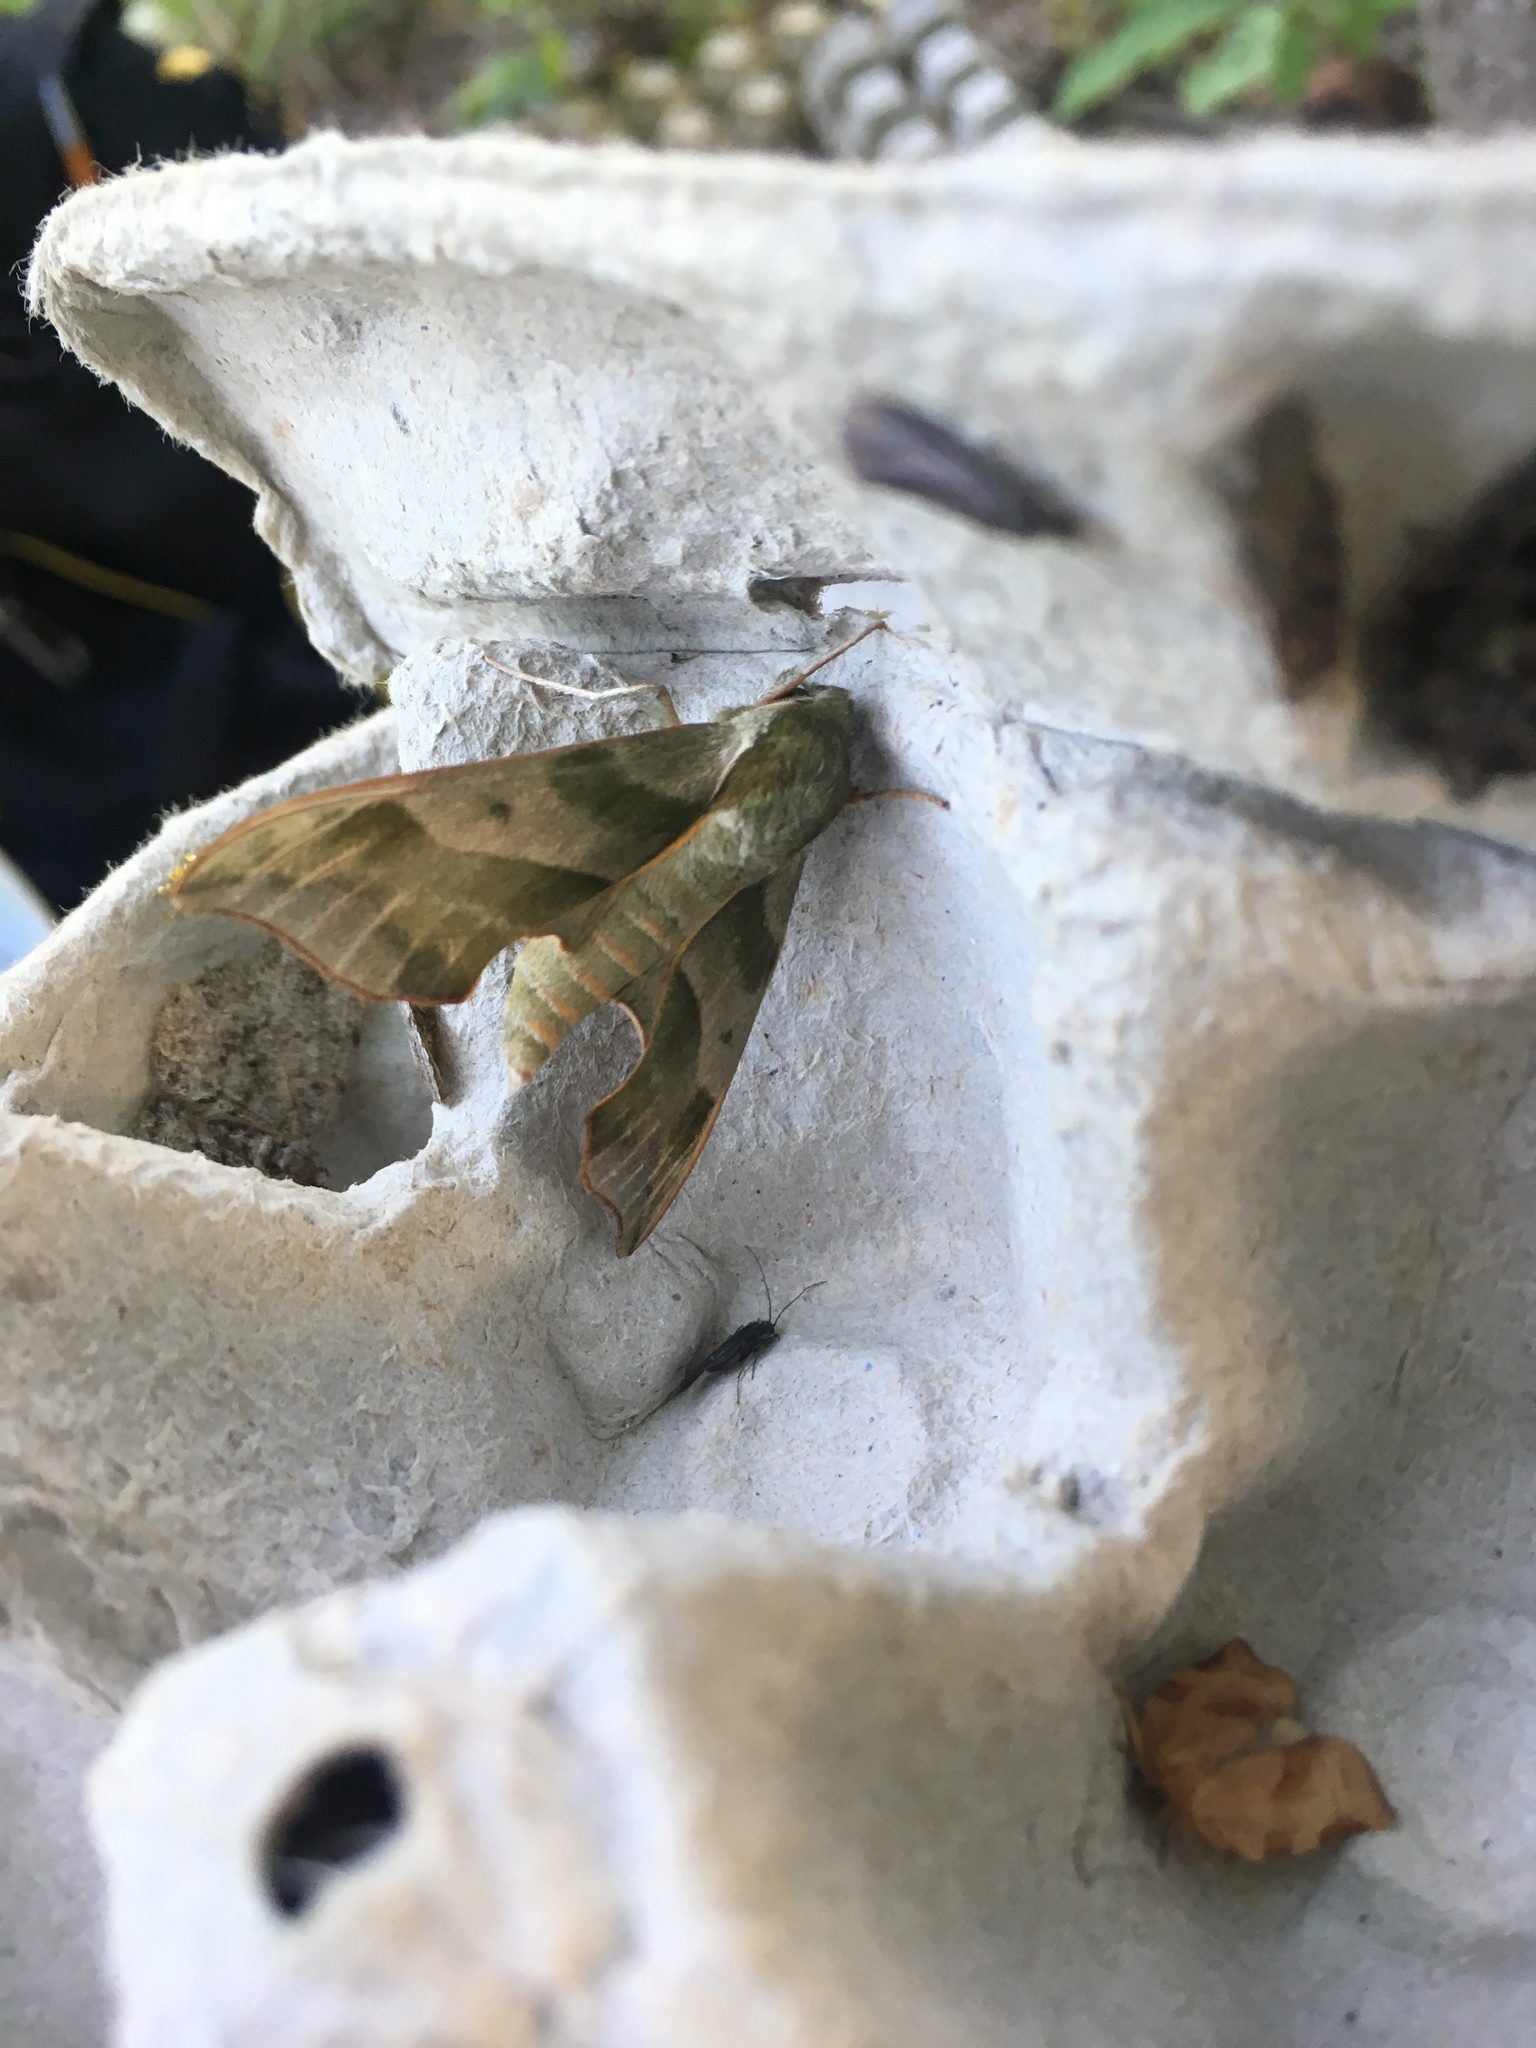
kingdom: Animalia
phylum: Arthropoda
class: Insecta
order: Lepidoptera
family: Sphingidae
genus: Darapsa
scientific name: Darapsa myron
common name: Hog sphinx
